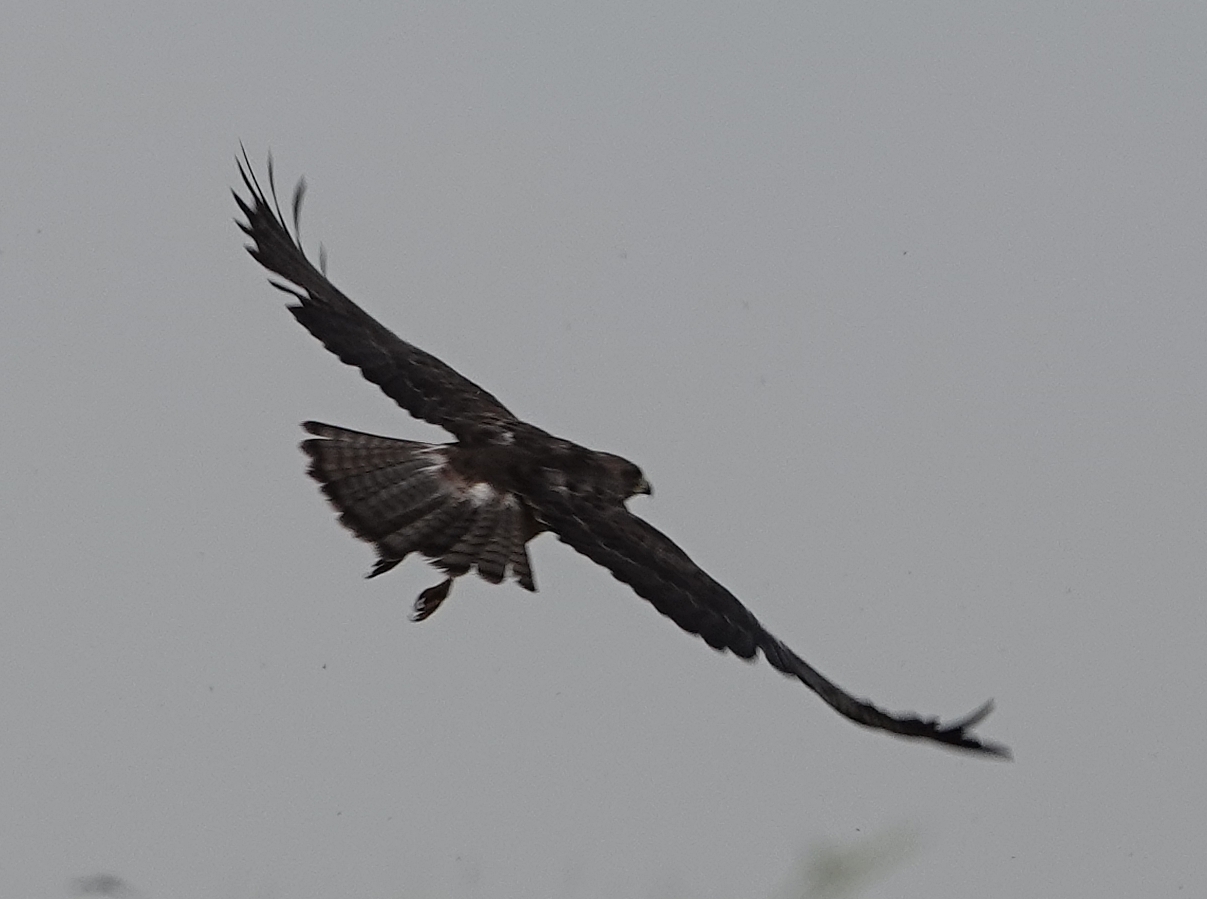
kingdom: Animalia
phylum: Chordata
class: Aves
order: Accipitriformes
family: Accipitridae
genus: Buteo
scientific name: Buteo swainsoni
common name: Swainson's hawk
